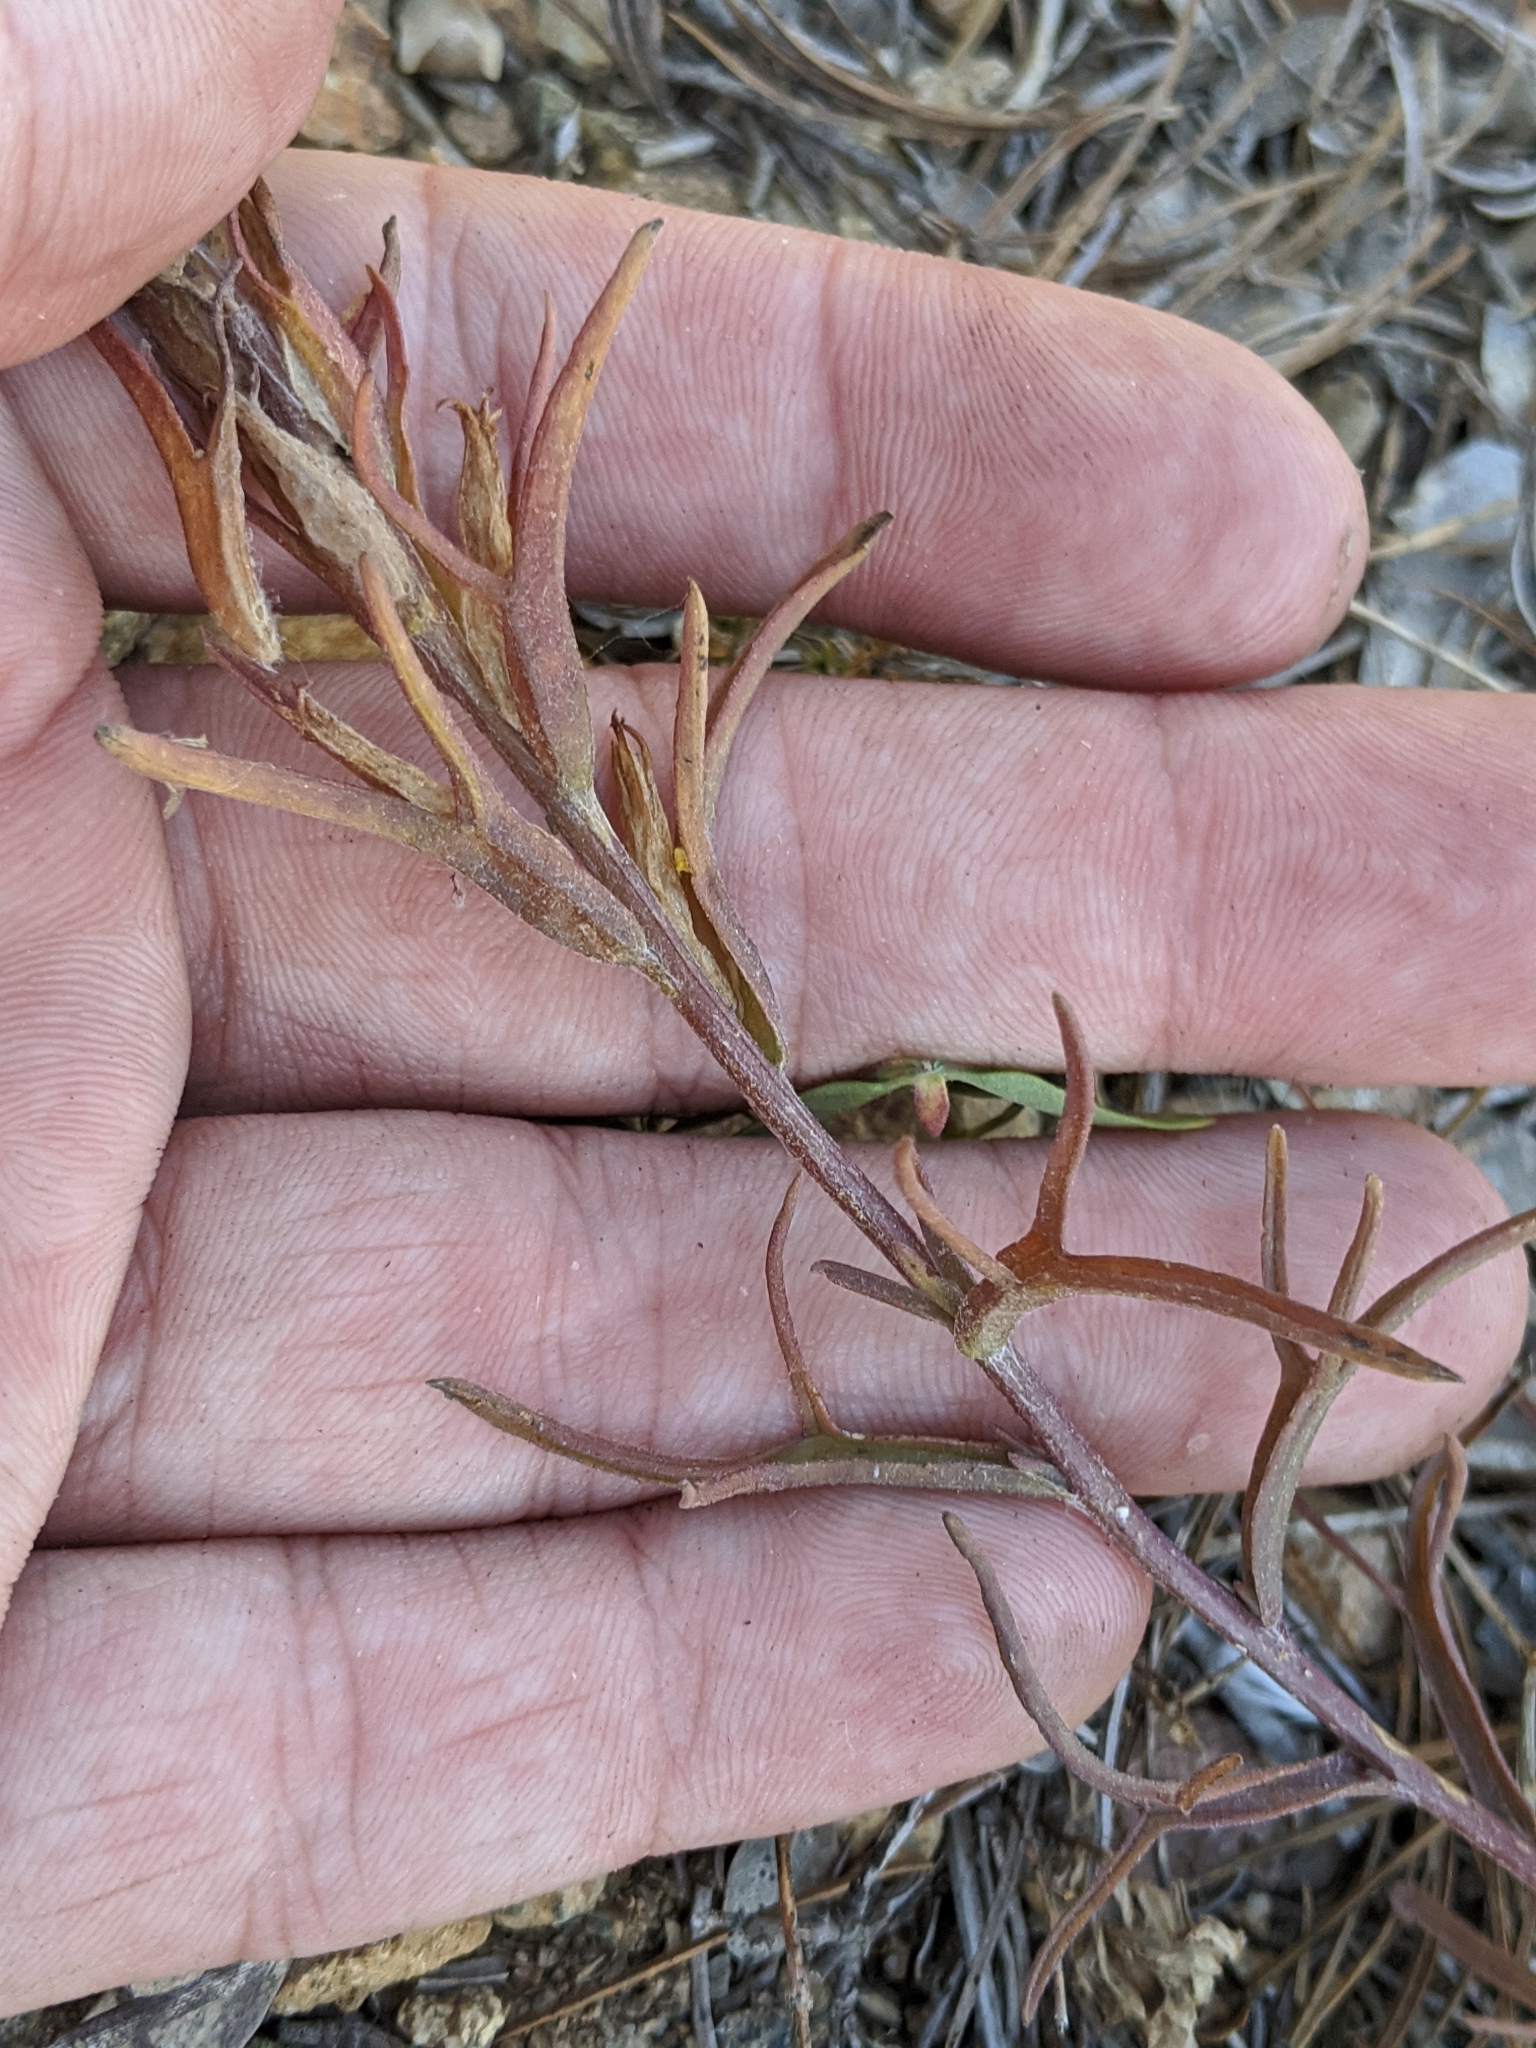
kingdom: Plantae
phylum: Tracheophyta
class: Magnoliopsida
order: Lamiales
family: Orobanchaceae
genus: Castilleja
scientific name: Castilleja arachnoidea
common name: Cobwebby indian paintbrush
